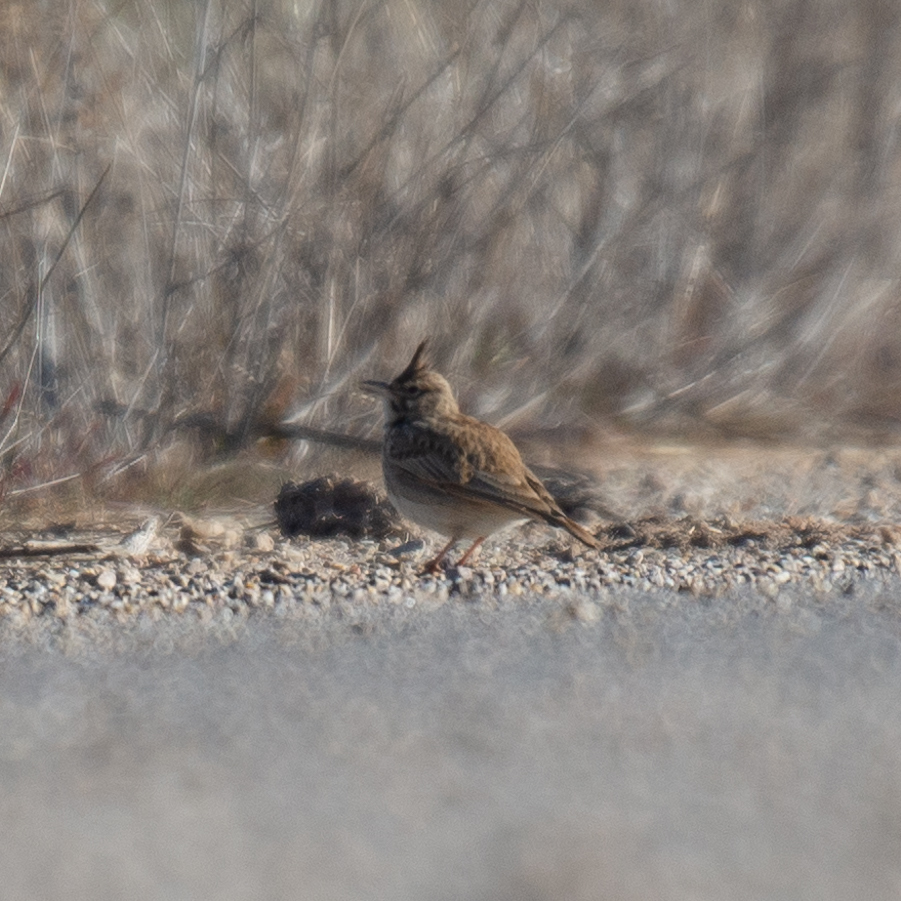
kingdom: Animalia
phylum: Chordata
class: Aves
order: Passeriformes
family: Alaudidae
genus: Galerida
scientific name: Galerida cristata
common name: Crested lark
